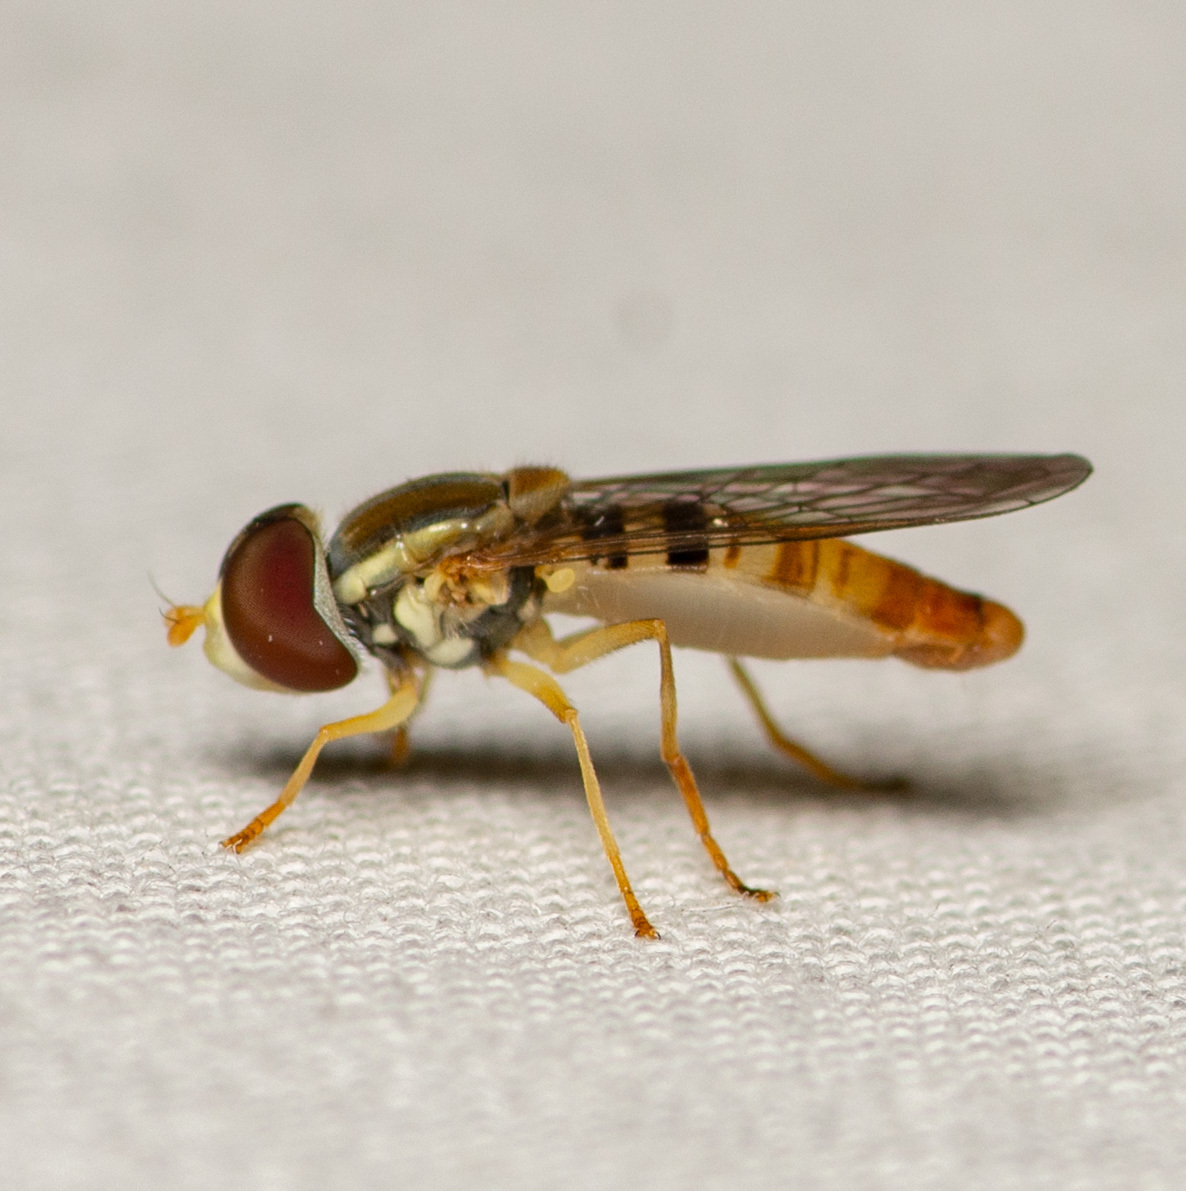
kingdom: Animalia
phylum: Arthropoda
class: Insecta
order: Diptera
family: Syrphidae
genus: Toxomerus
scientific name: Toxomerus politus
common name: Maize calligrapher
